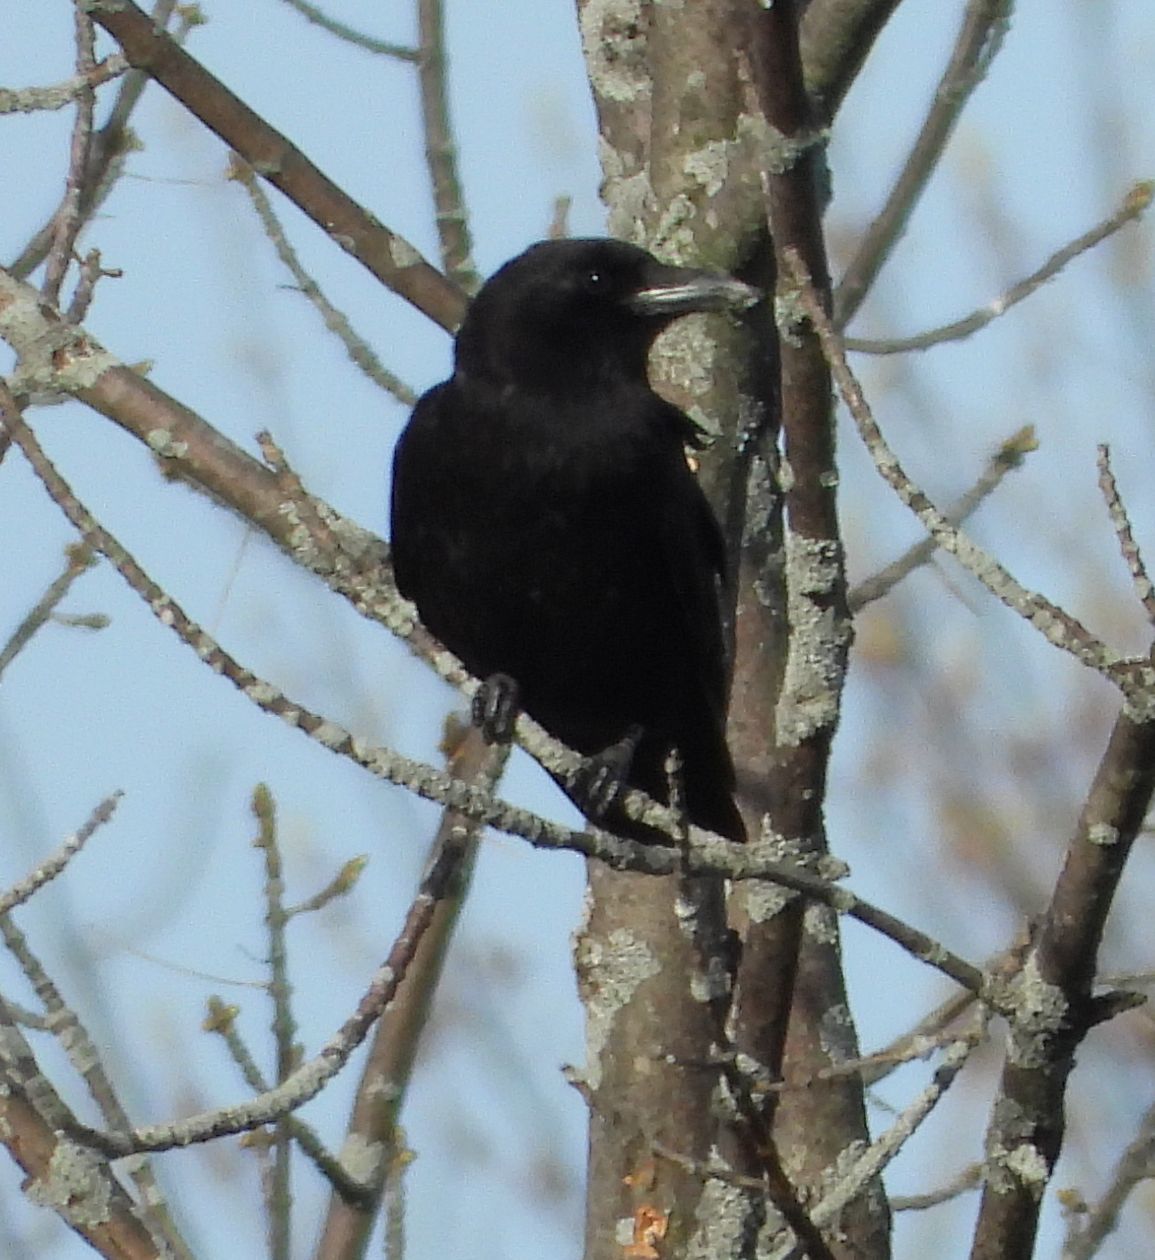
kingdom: Animalia
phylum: Chordata
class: Aves
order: Passeriformes
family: Corvidae
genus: Corvus
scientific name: Corvus brachyrhynchos
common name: American crow
